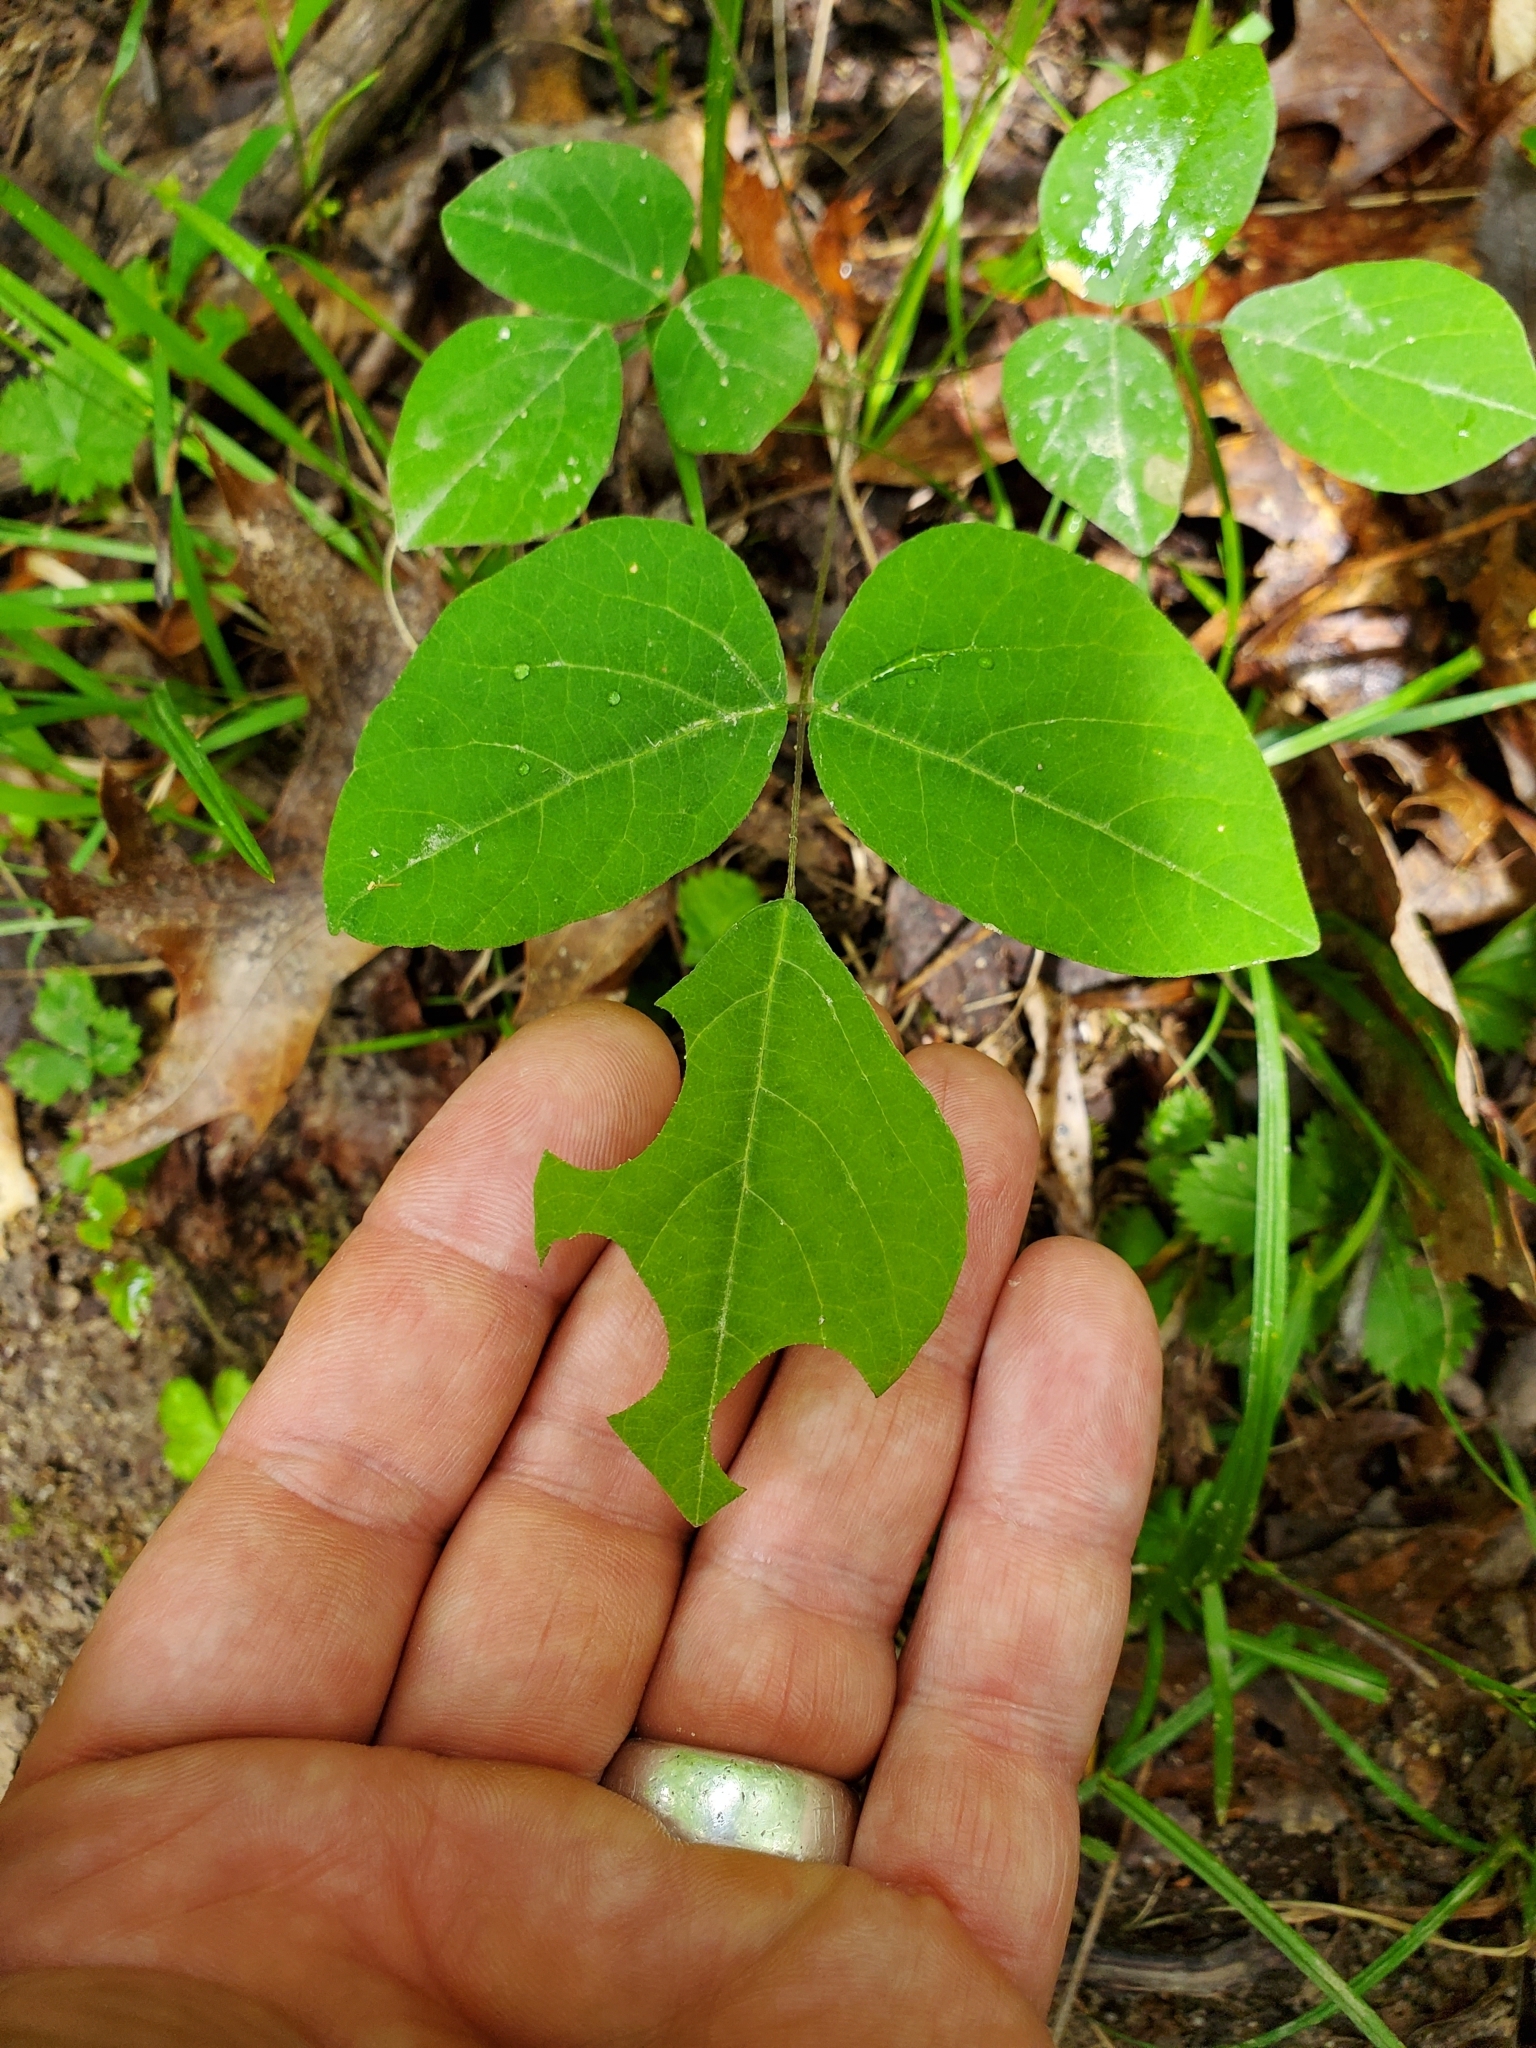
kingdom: Plantae
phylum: Tracheophyta
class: Magnoliopsida
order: Fabales
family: Fabaceae
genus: Hylodesmum
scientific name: Hylodesmum nudiflorum
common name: Bare-stemmed tick-trefoil
